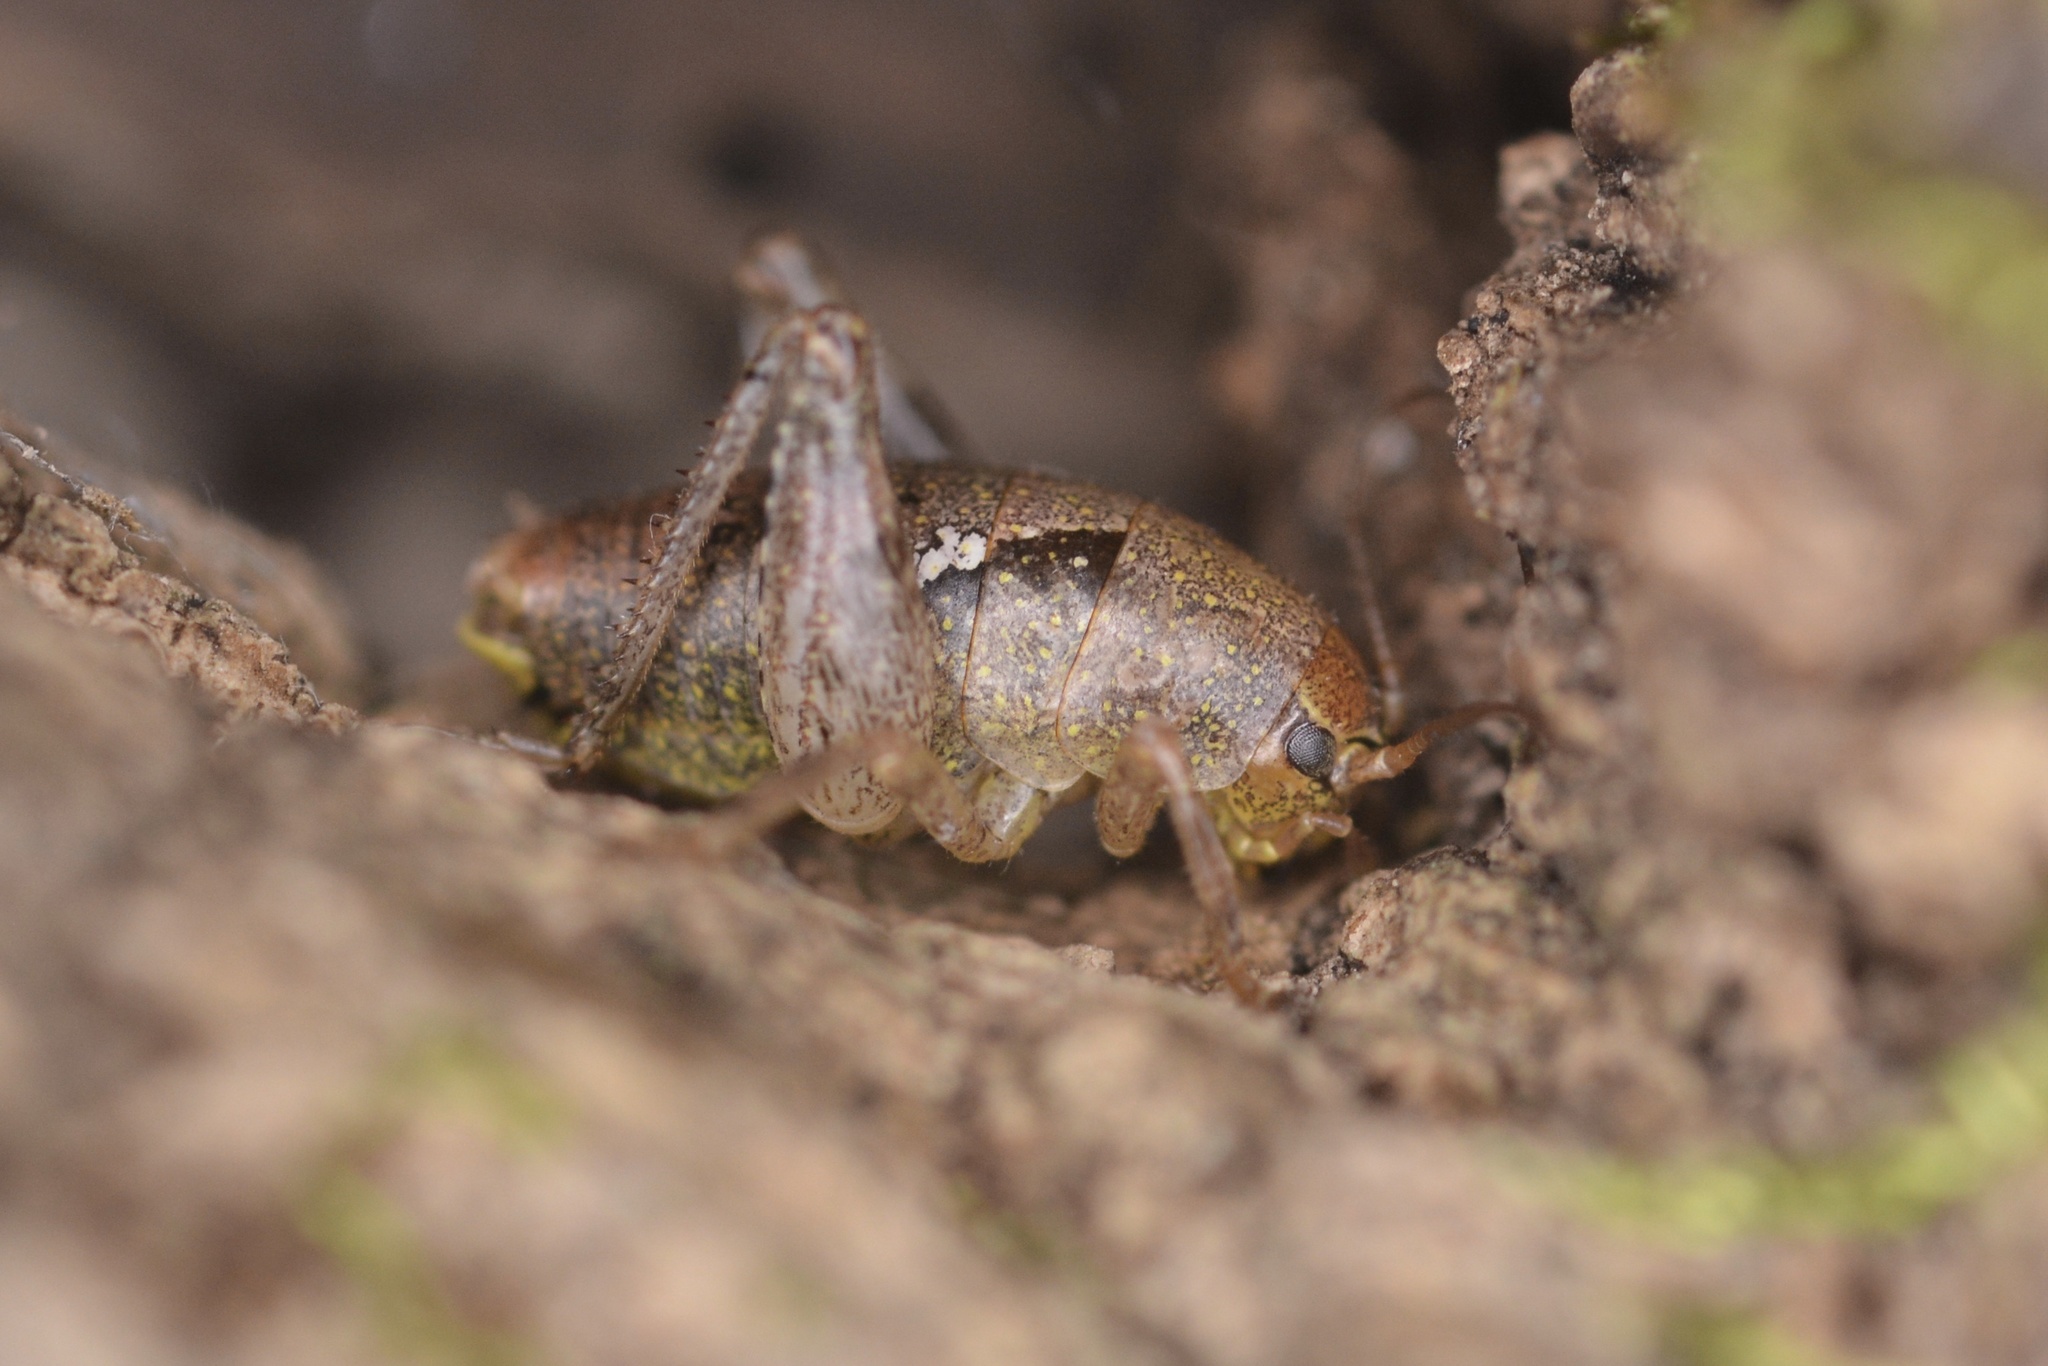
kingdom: Animalia
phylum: Arthropoda
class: Insecta
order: Orthoptera
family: Rhaphidophoridae
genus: Gammarotettix
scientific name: Gammarotettix bilobatus
